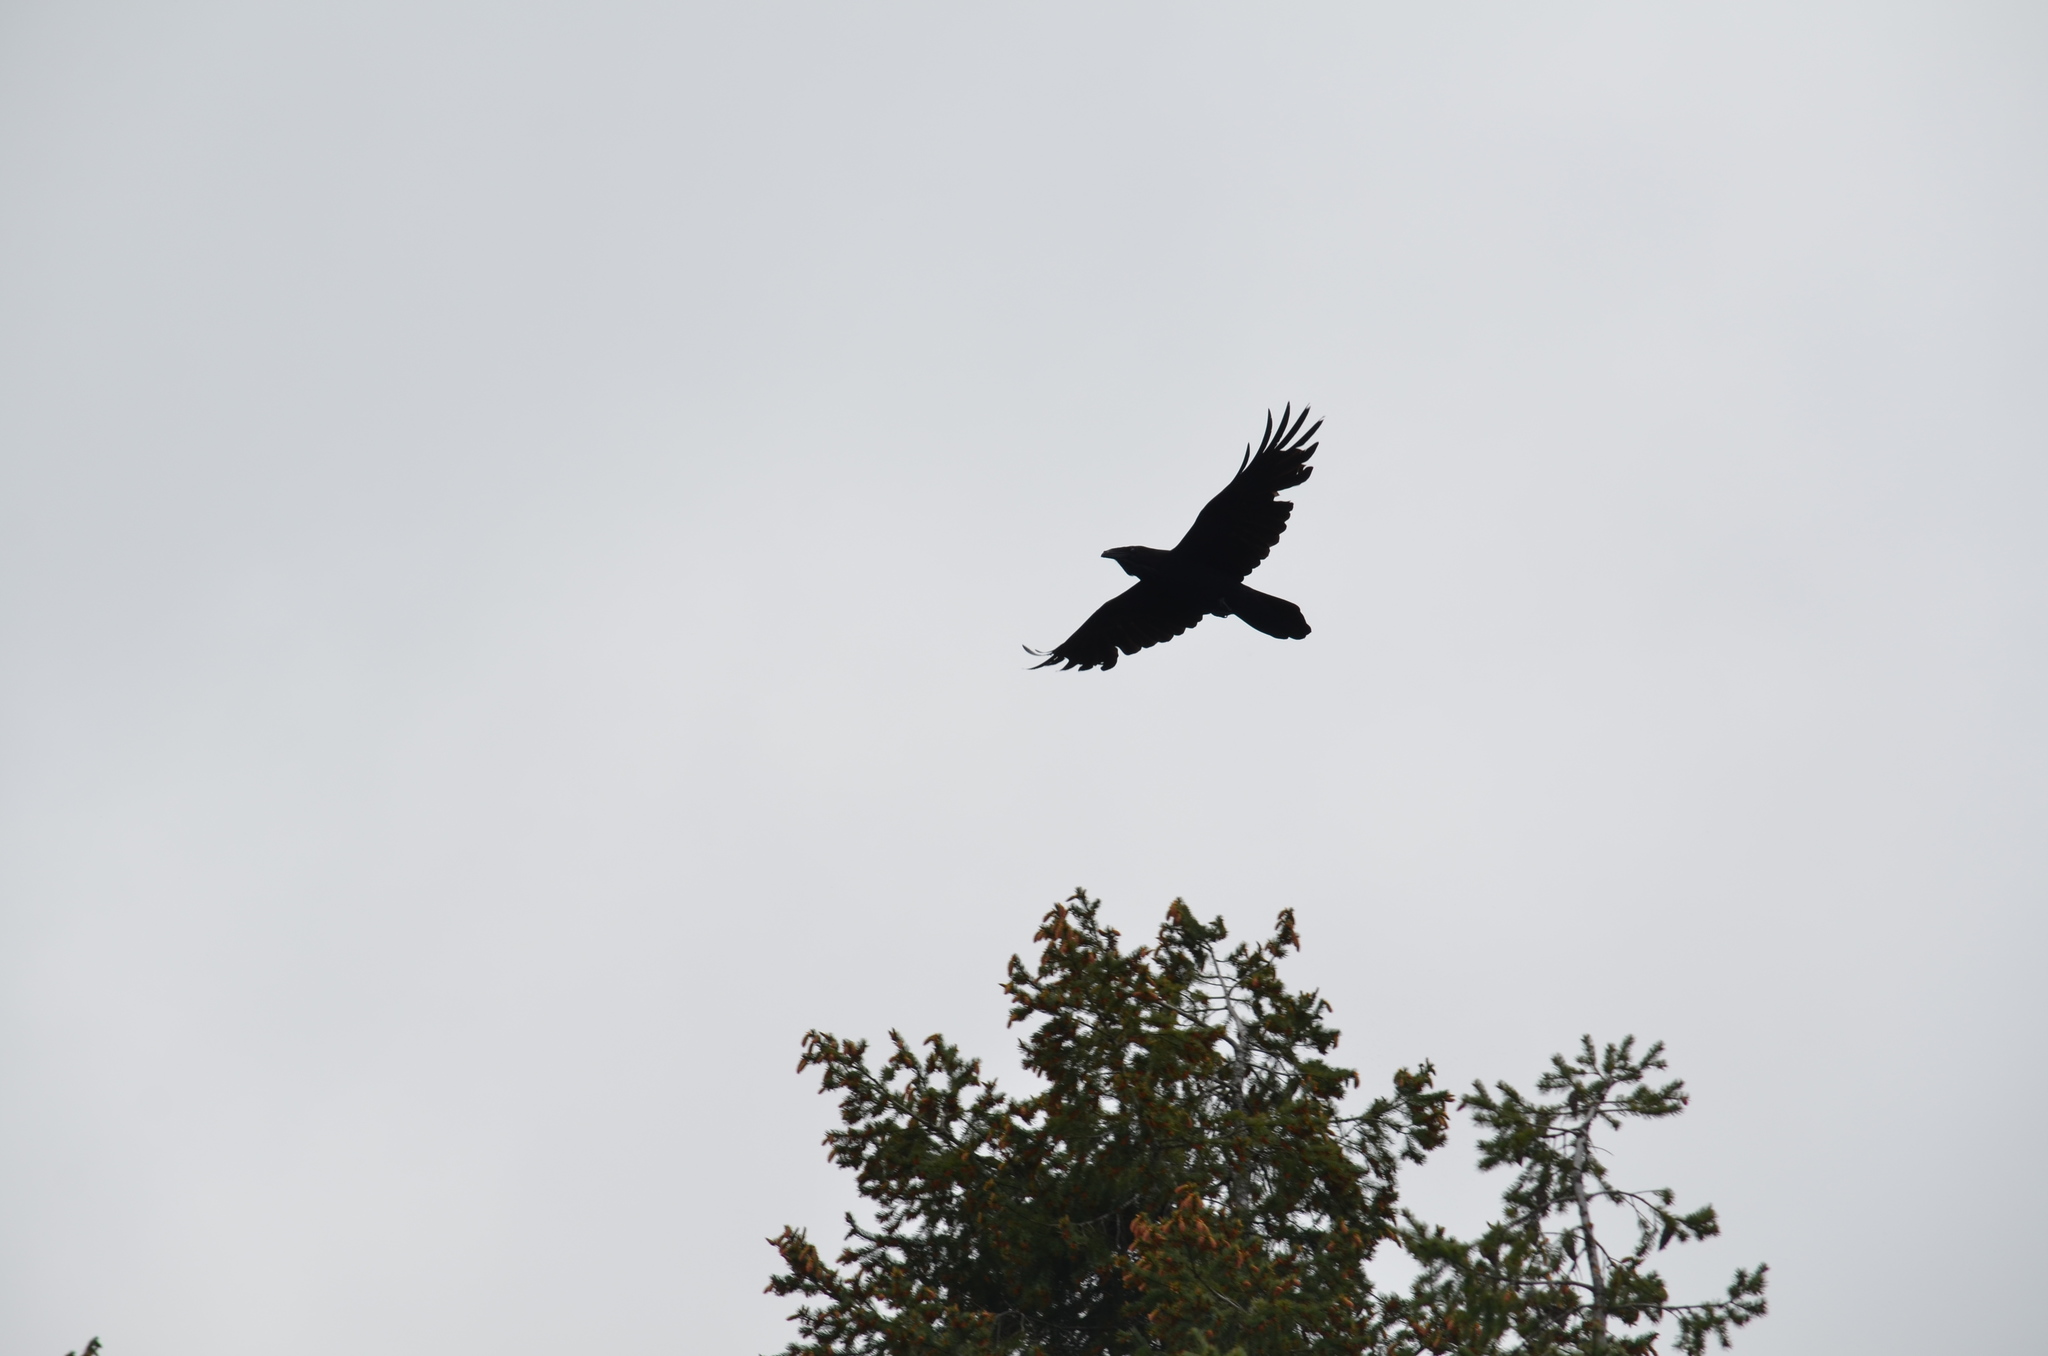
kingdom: Animalia
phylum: Chordata
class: Aves
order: Passeriformes
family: Corvidae
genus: Corvus
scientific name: Corvus corax
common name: Common raven
